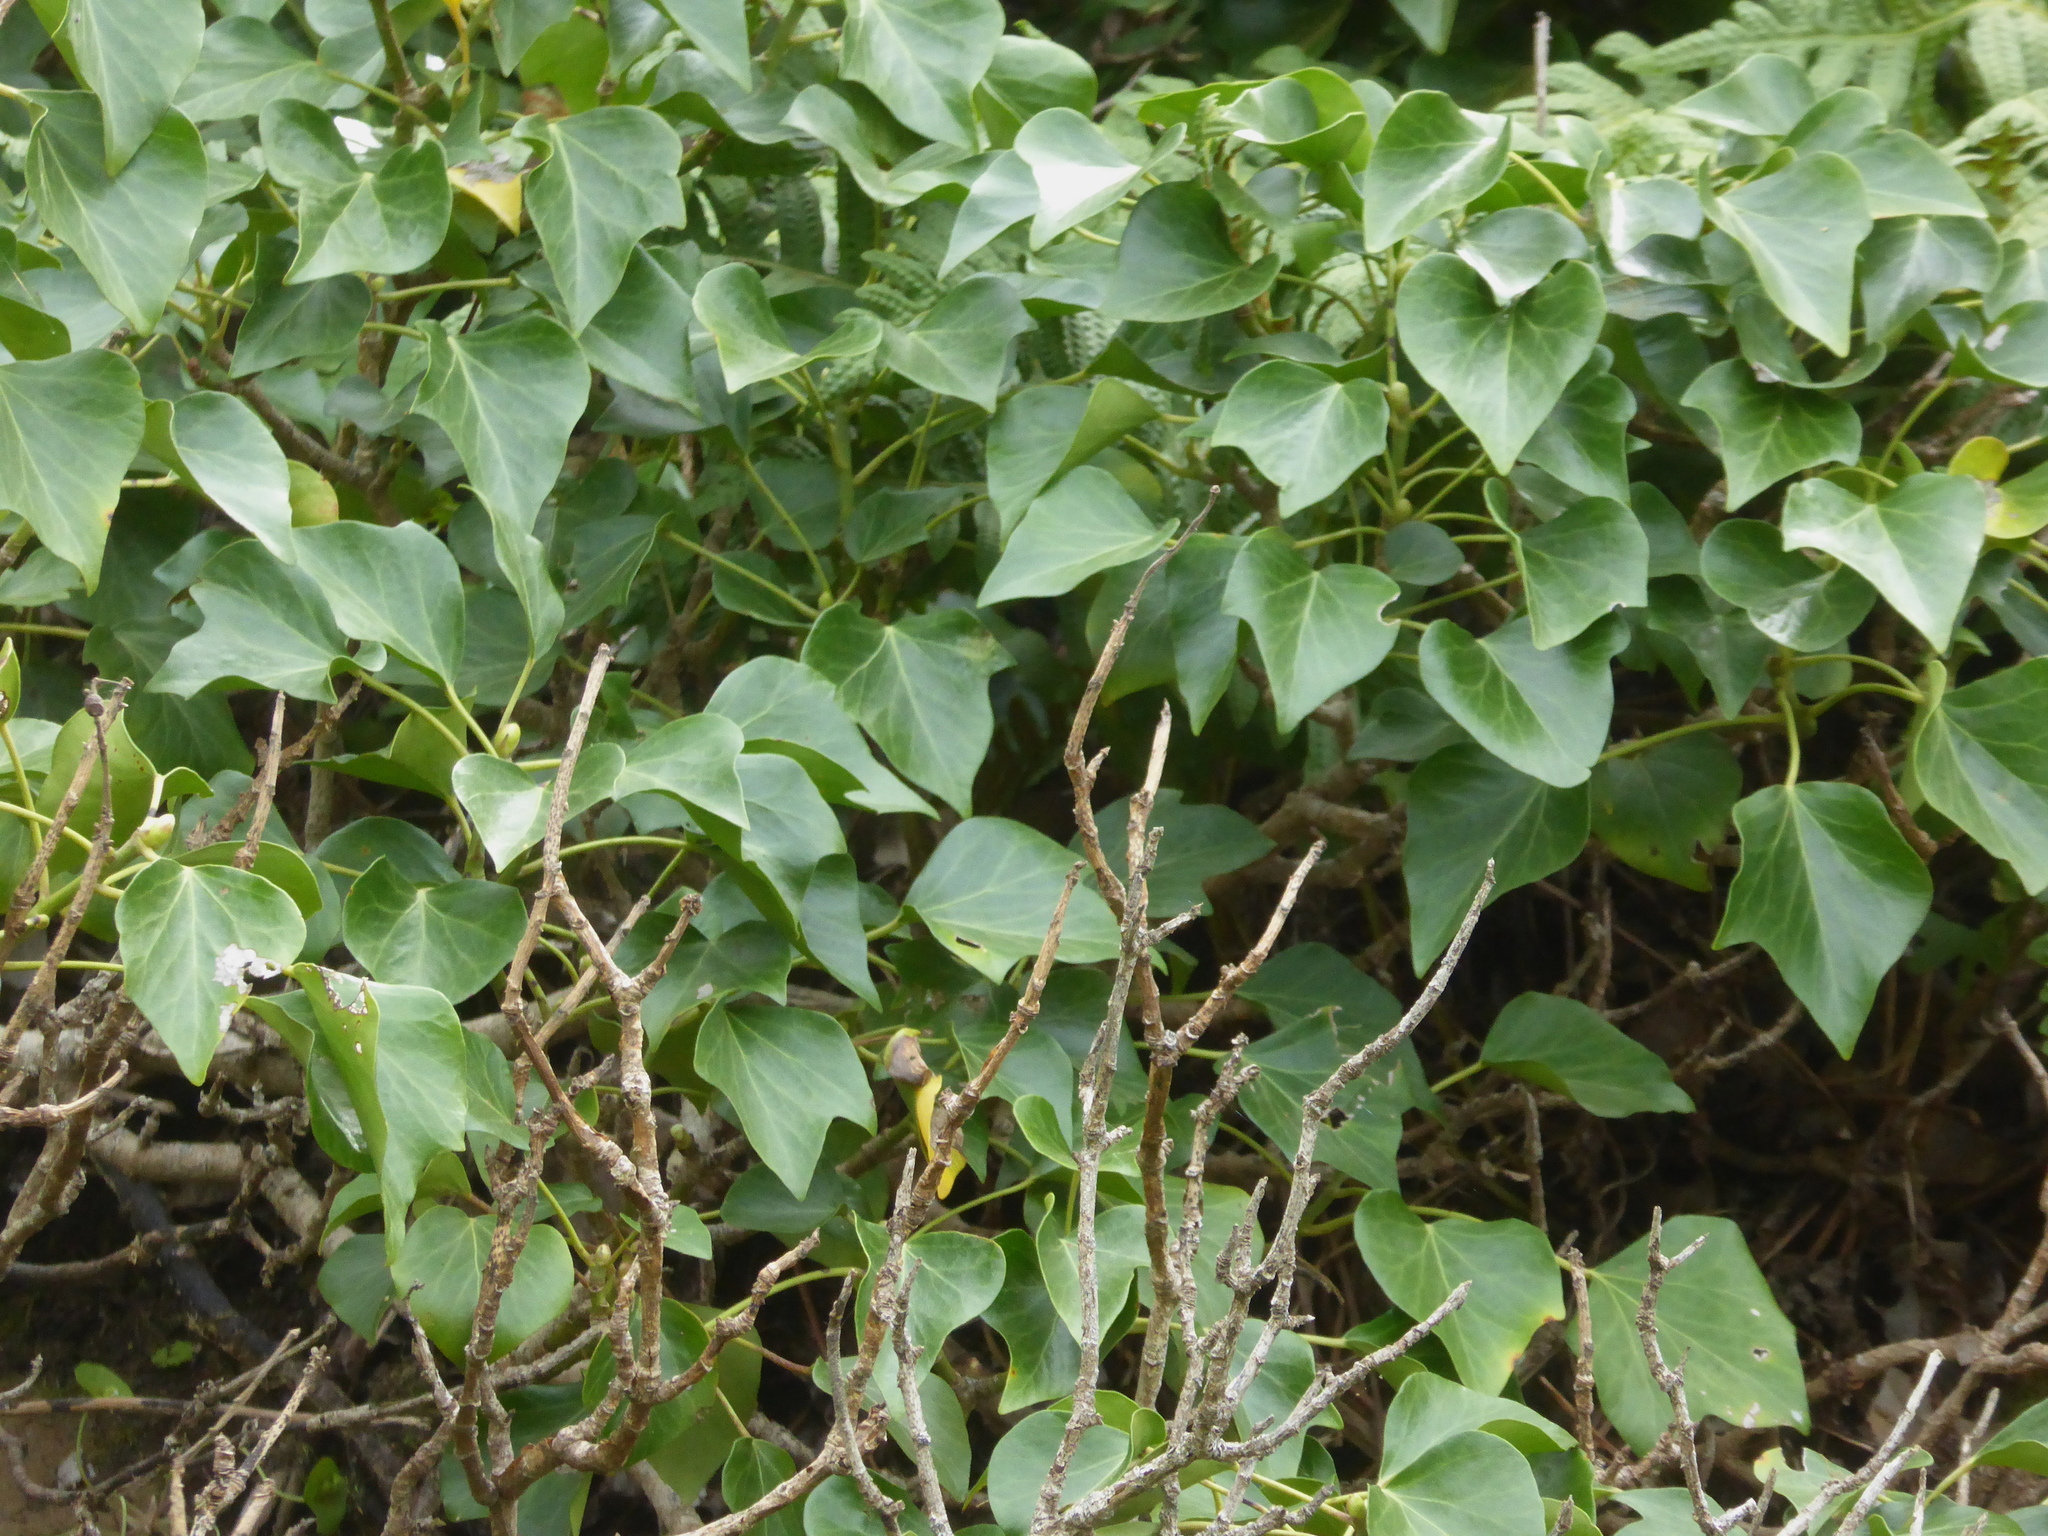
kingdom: Plantae
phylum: Tracheophyta
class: Magnoliopsida
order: Apiales
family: Araliaceae
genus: Hedera
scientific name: Hedera canariensis
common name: Madeira ivy
